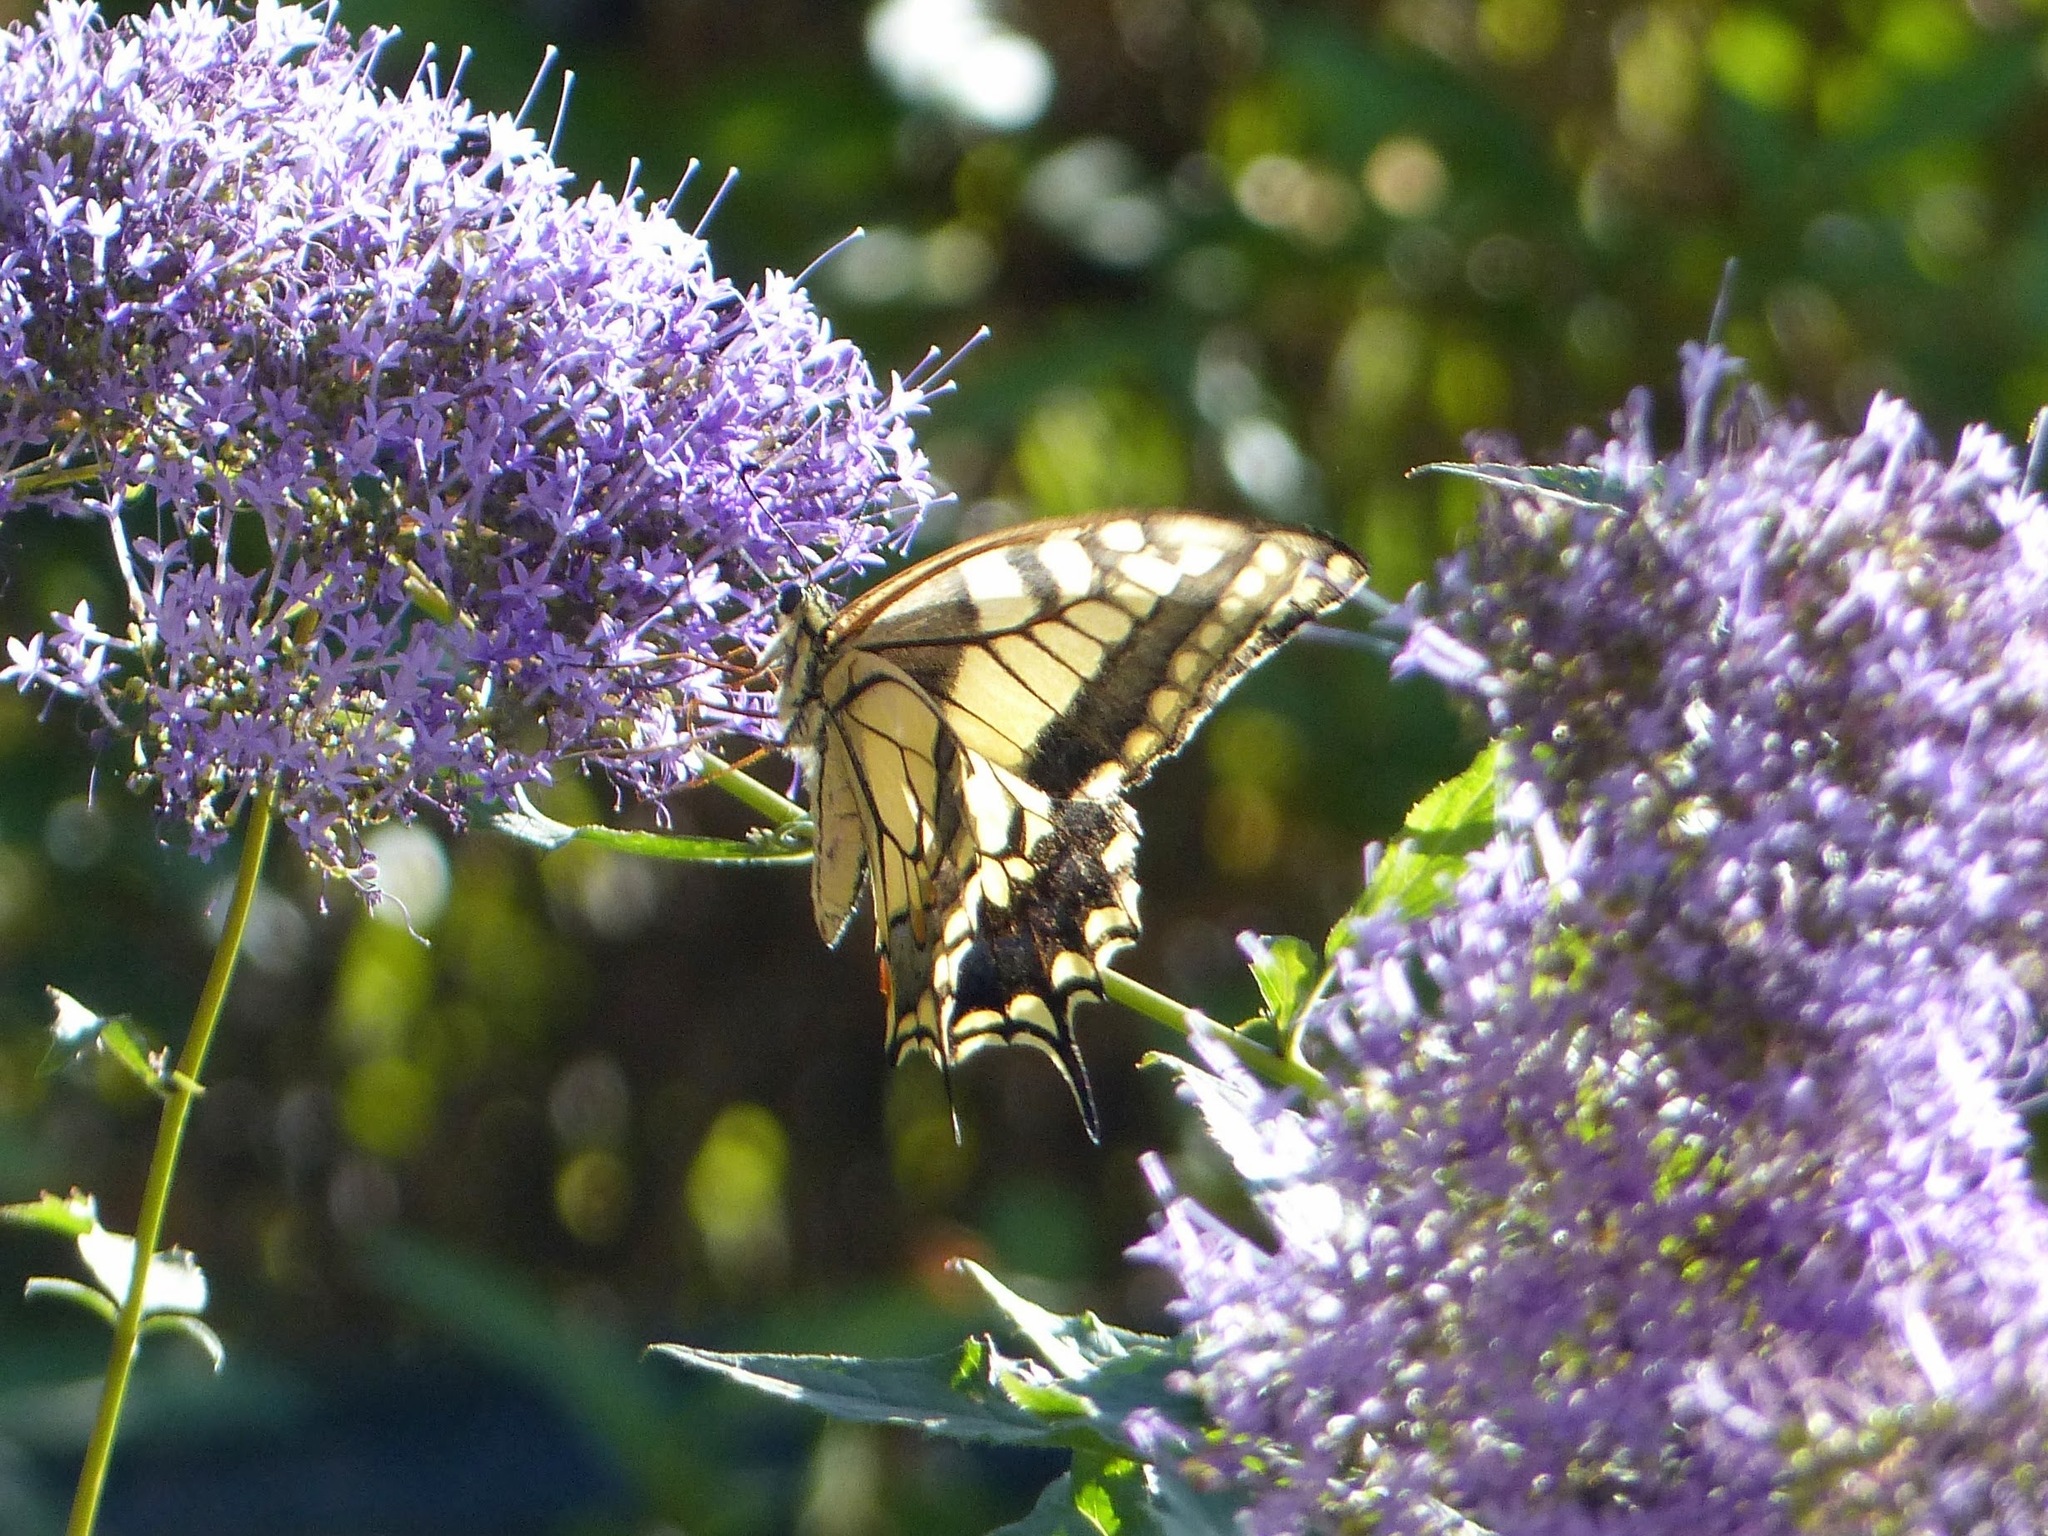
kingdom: Animalia
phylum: Arthropoda
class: Insecta
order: Lepidoptera
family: Papilionidae
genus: Papilio
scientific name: Papilio machaon
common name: Swallowtail
